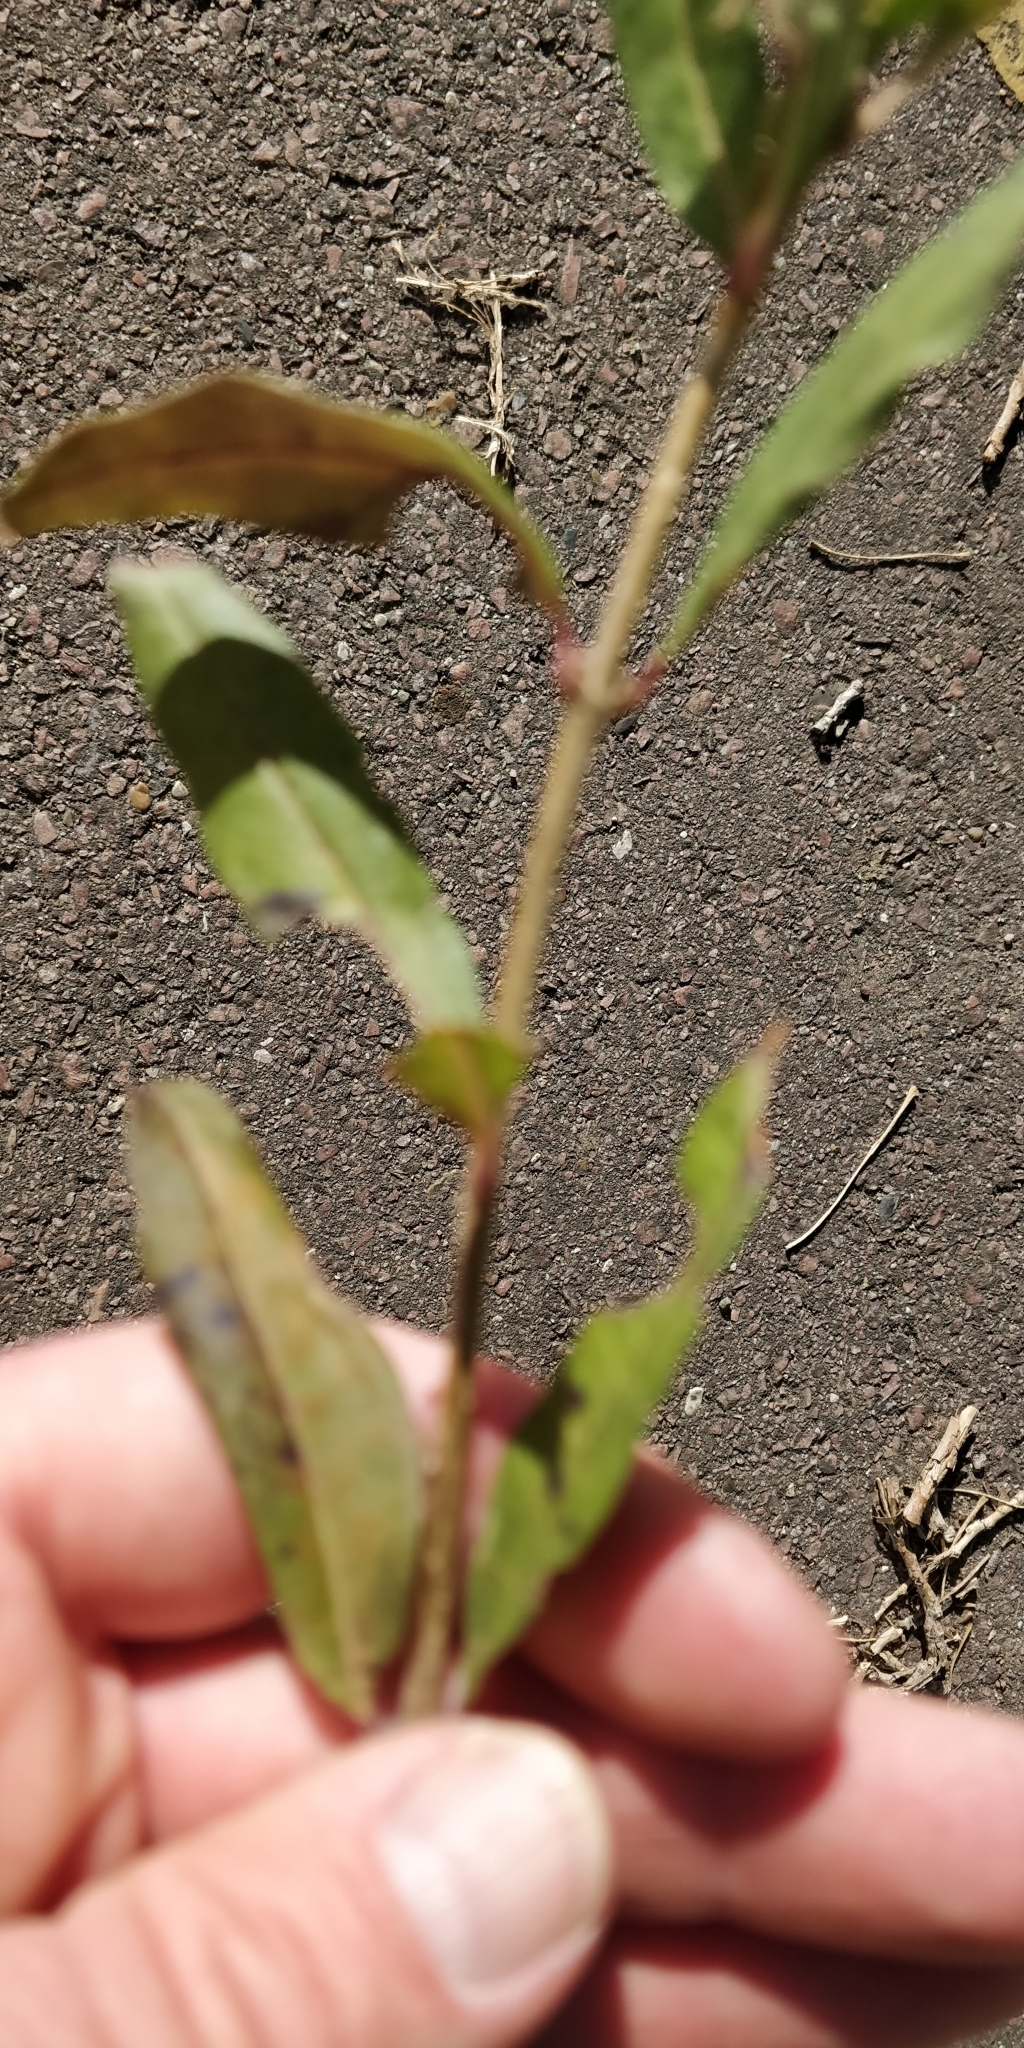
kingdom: Plantae
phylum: Tracheophyta
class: Magnoliopsida
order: Lamiales
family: Oleaceae
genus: Ligustrum
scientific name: Ligustrum vulgare
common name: Wild privet
